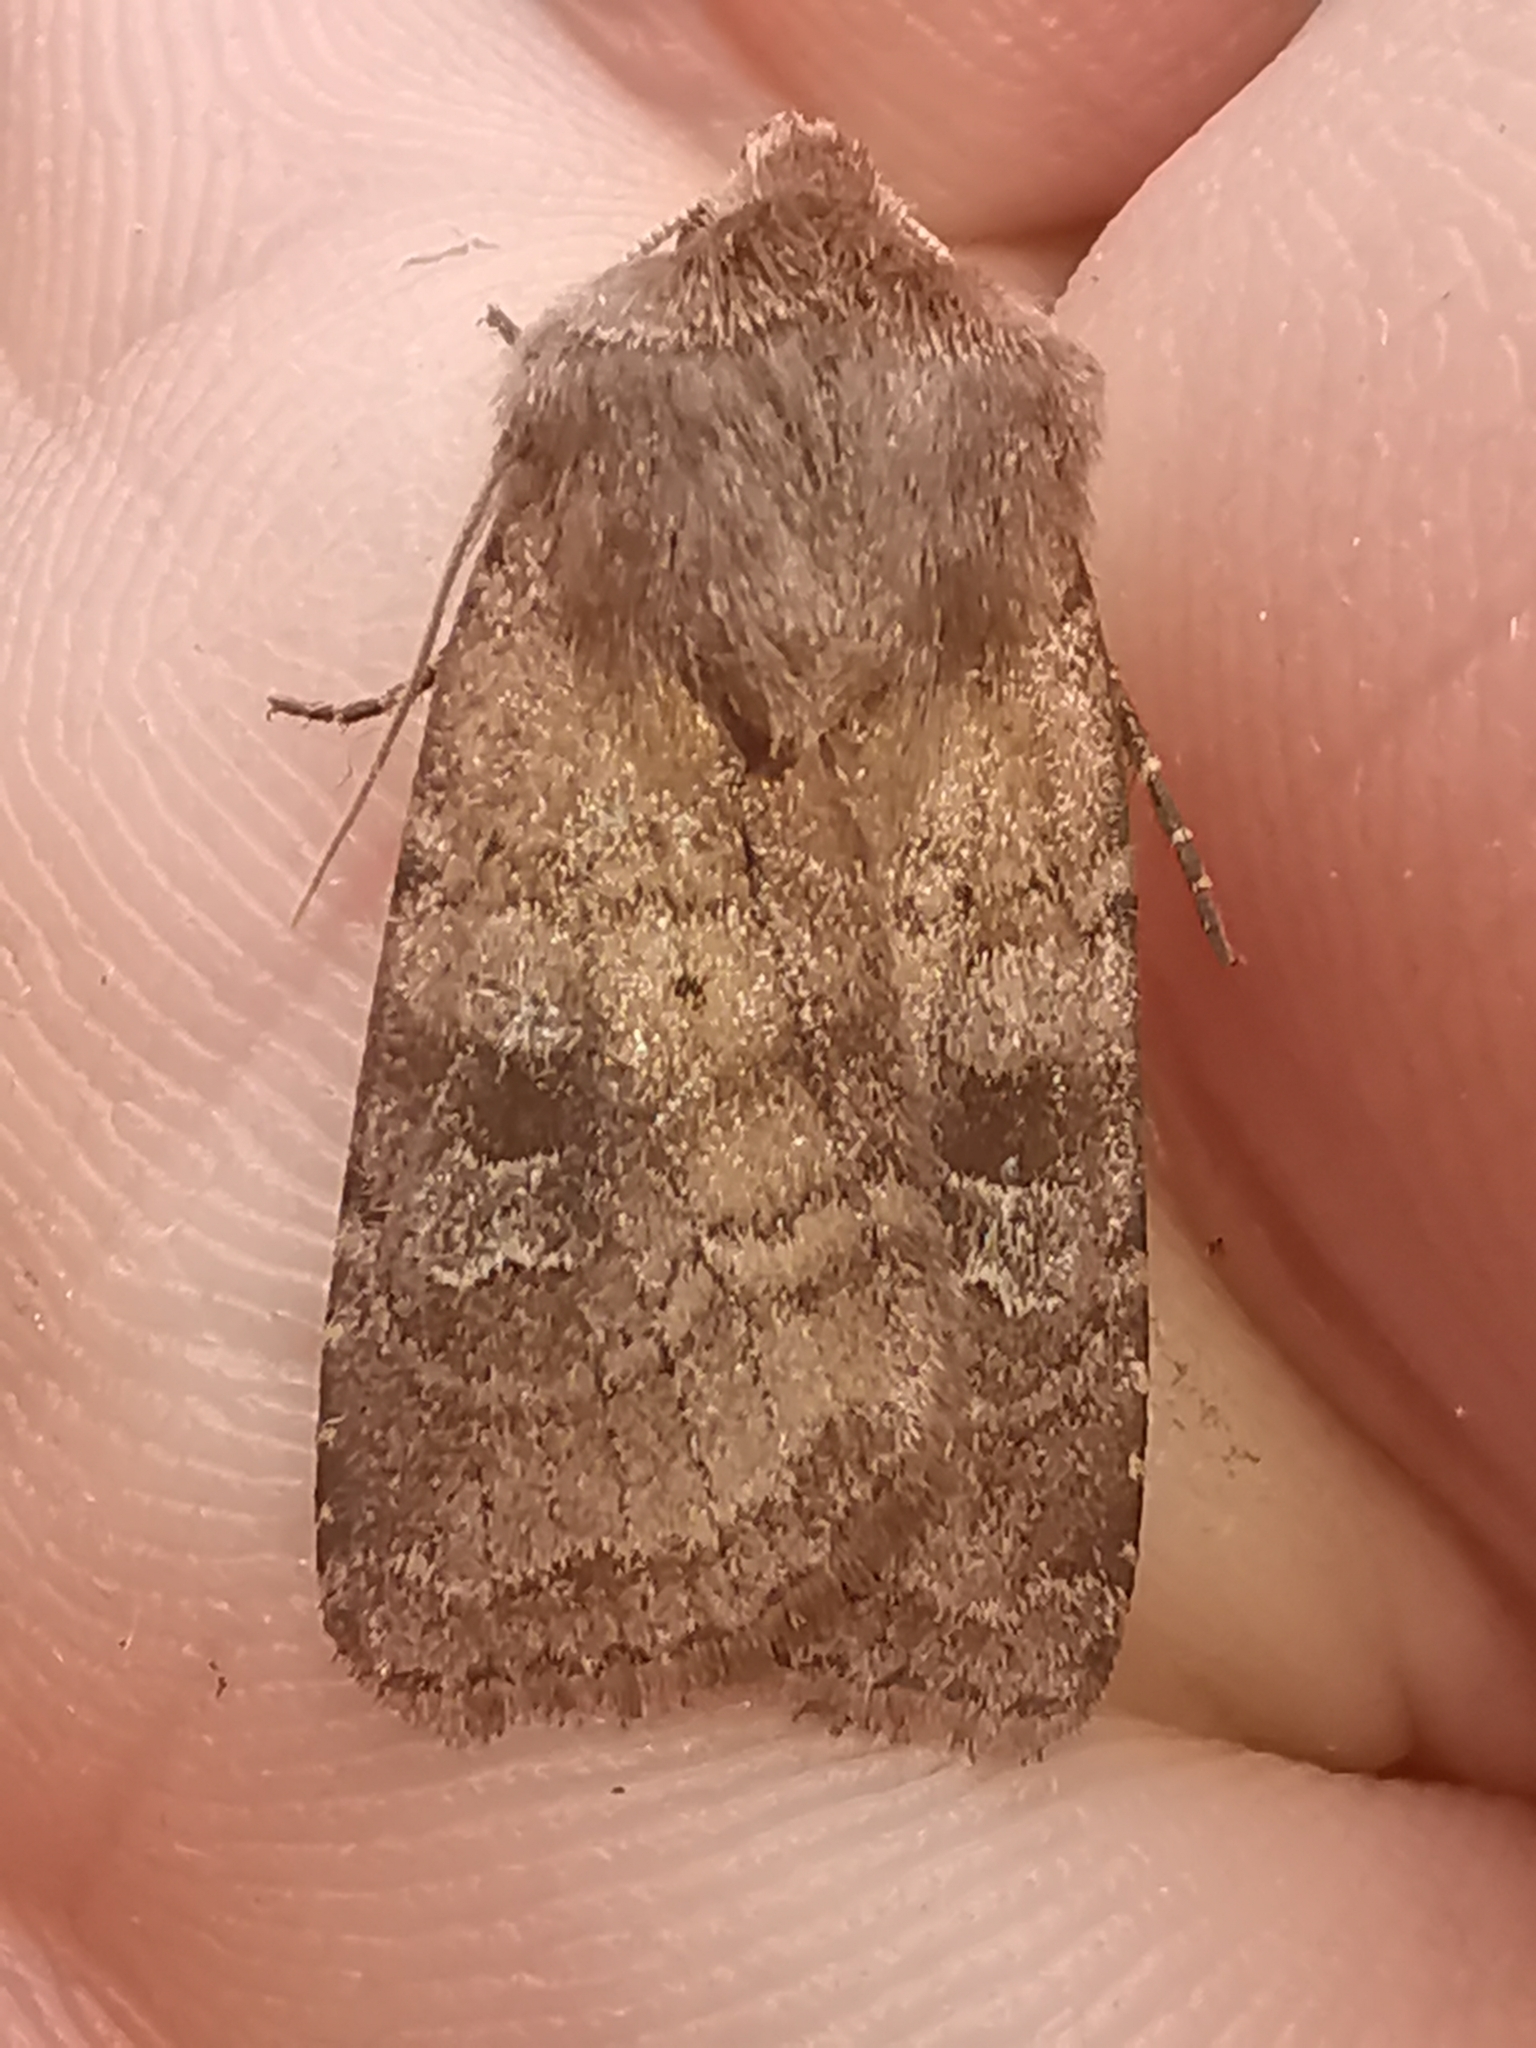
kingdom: Animalia
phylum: Arthropoda
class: Insecta
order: Lepidoptera
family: Noctuidae
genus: Diarsia
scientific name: Diarsia rubi
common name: Small square-spot
